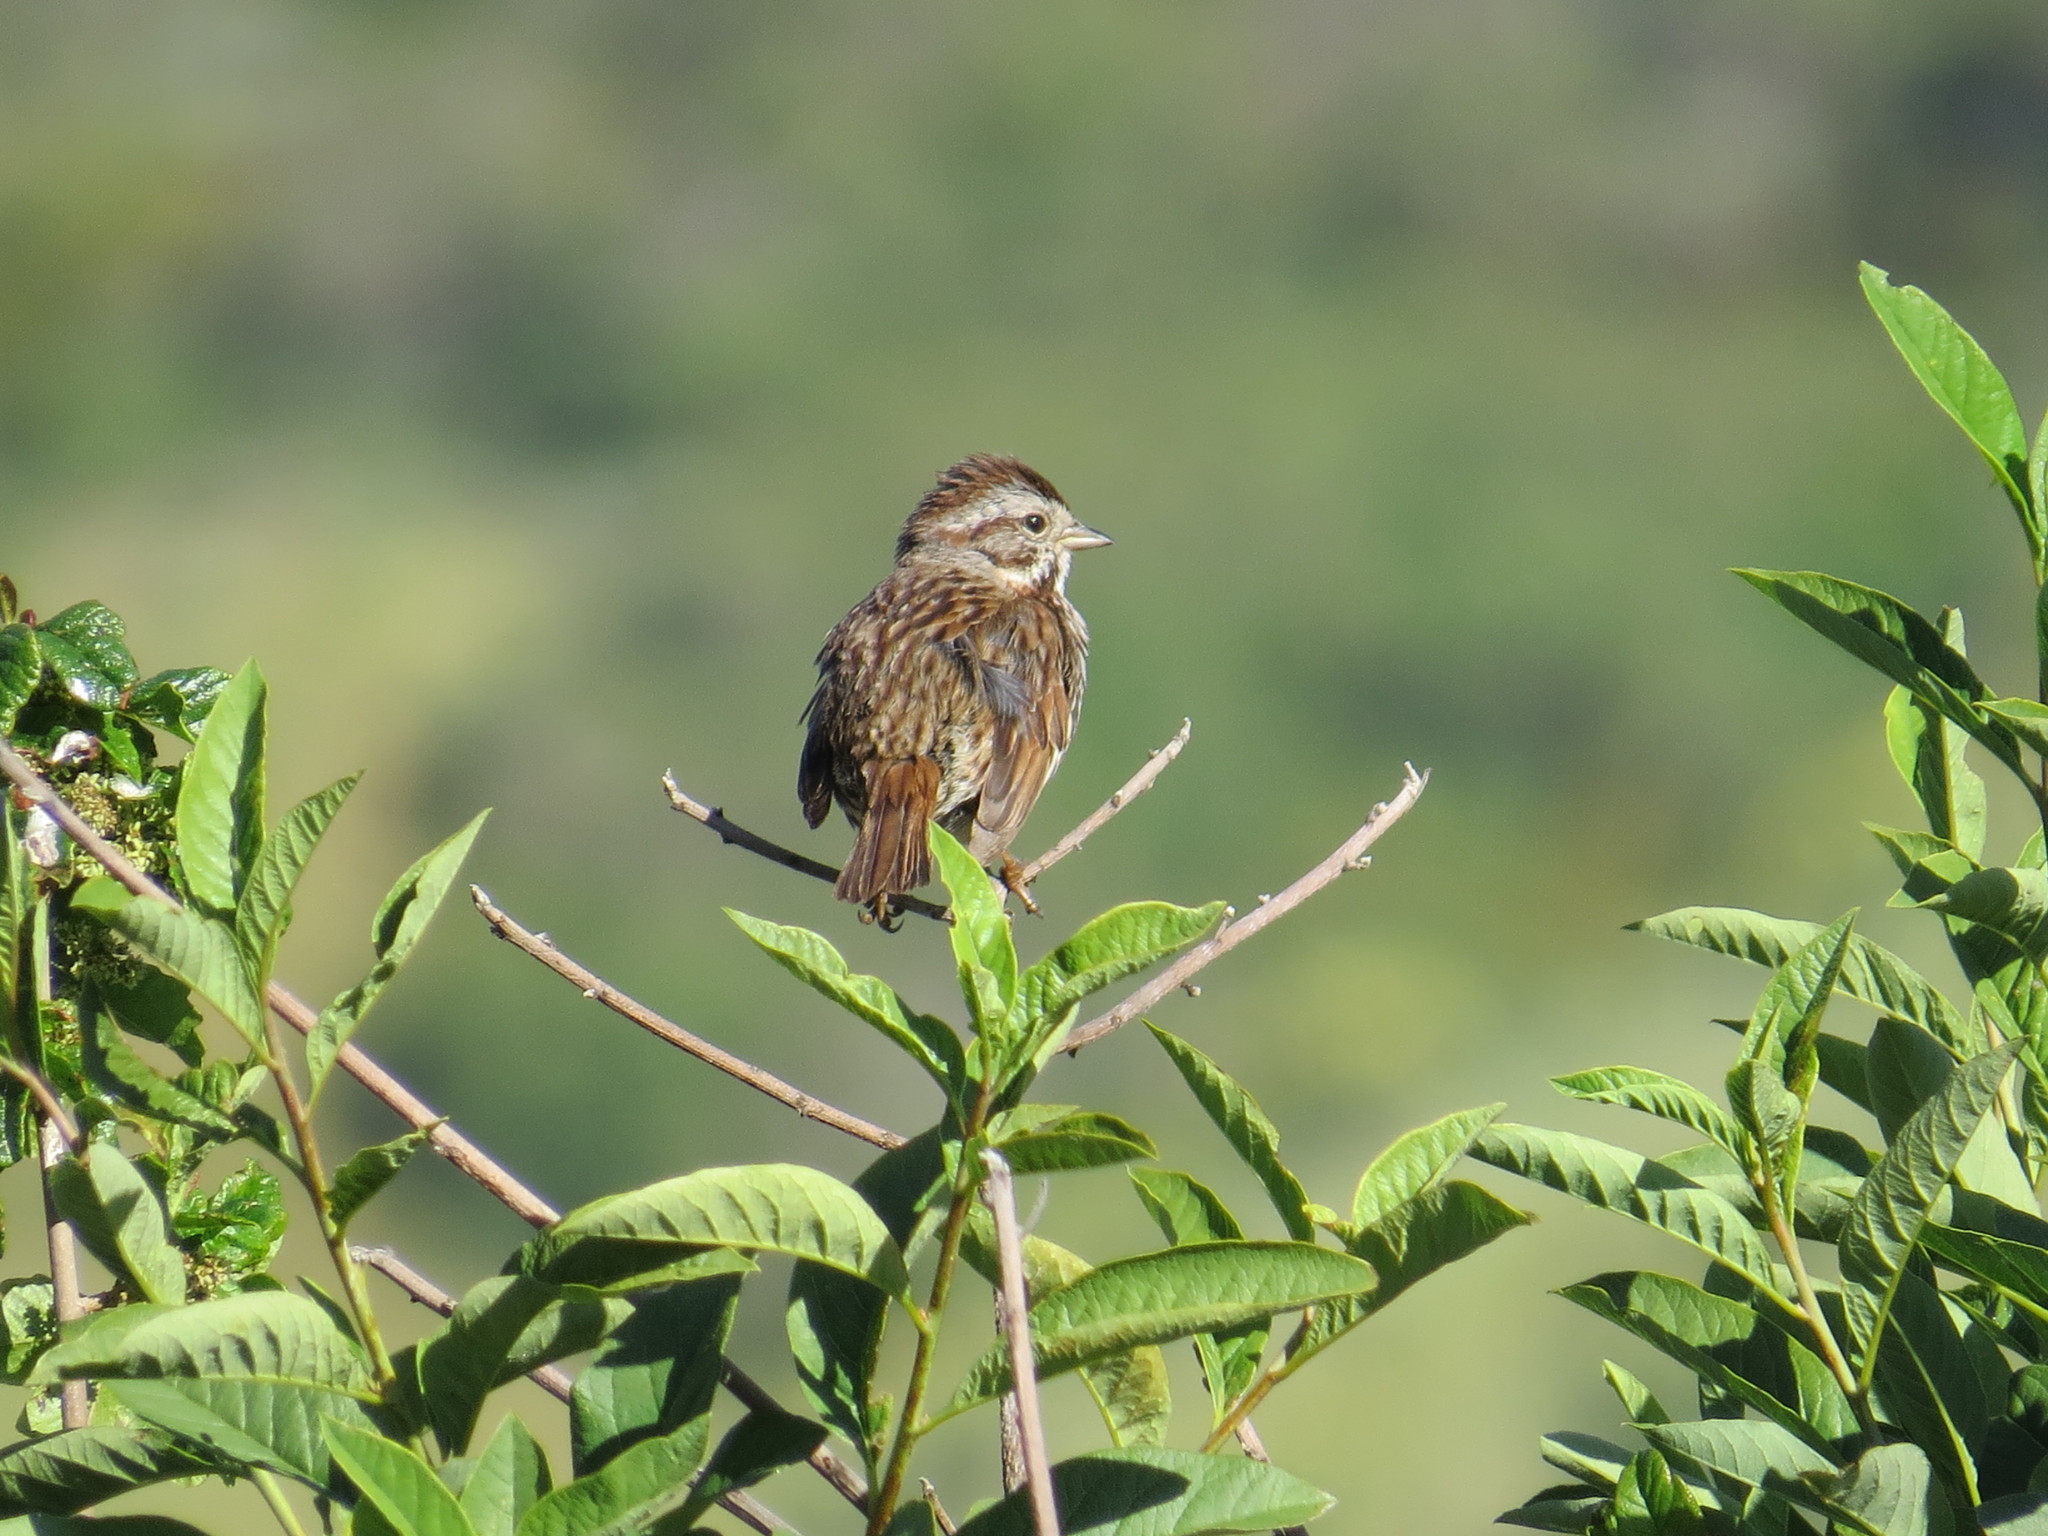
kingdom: Animalia
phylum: Chordata
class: Aves
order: Passeriformes
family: Passerellidae
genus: Melospiza
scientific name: Melospiza melodia
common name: Song sparrow
